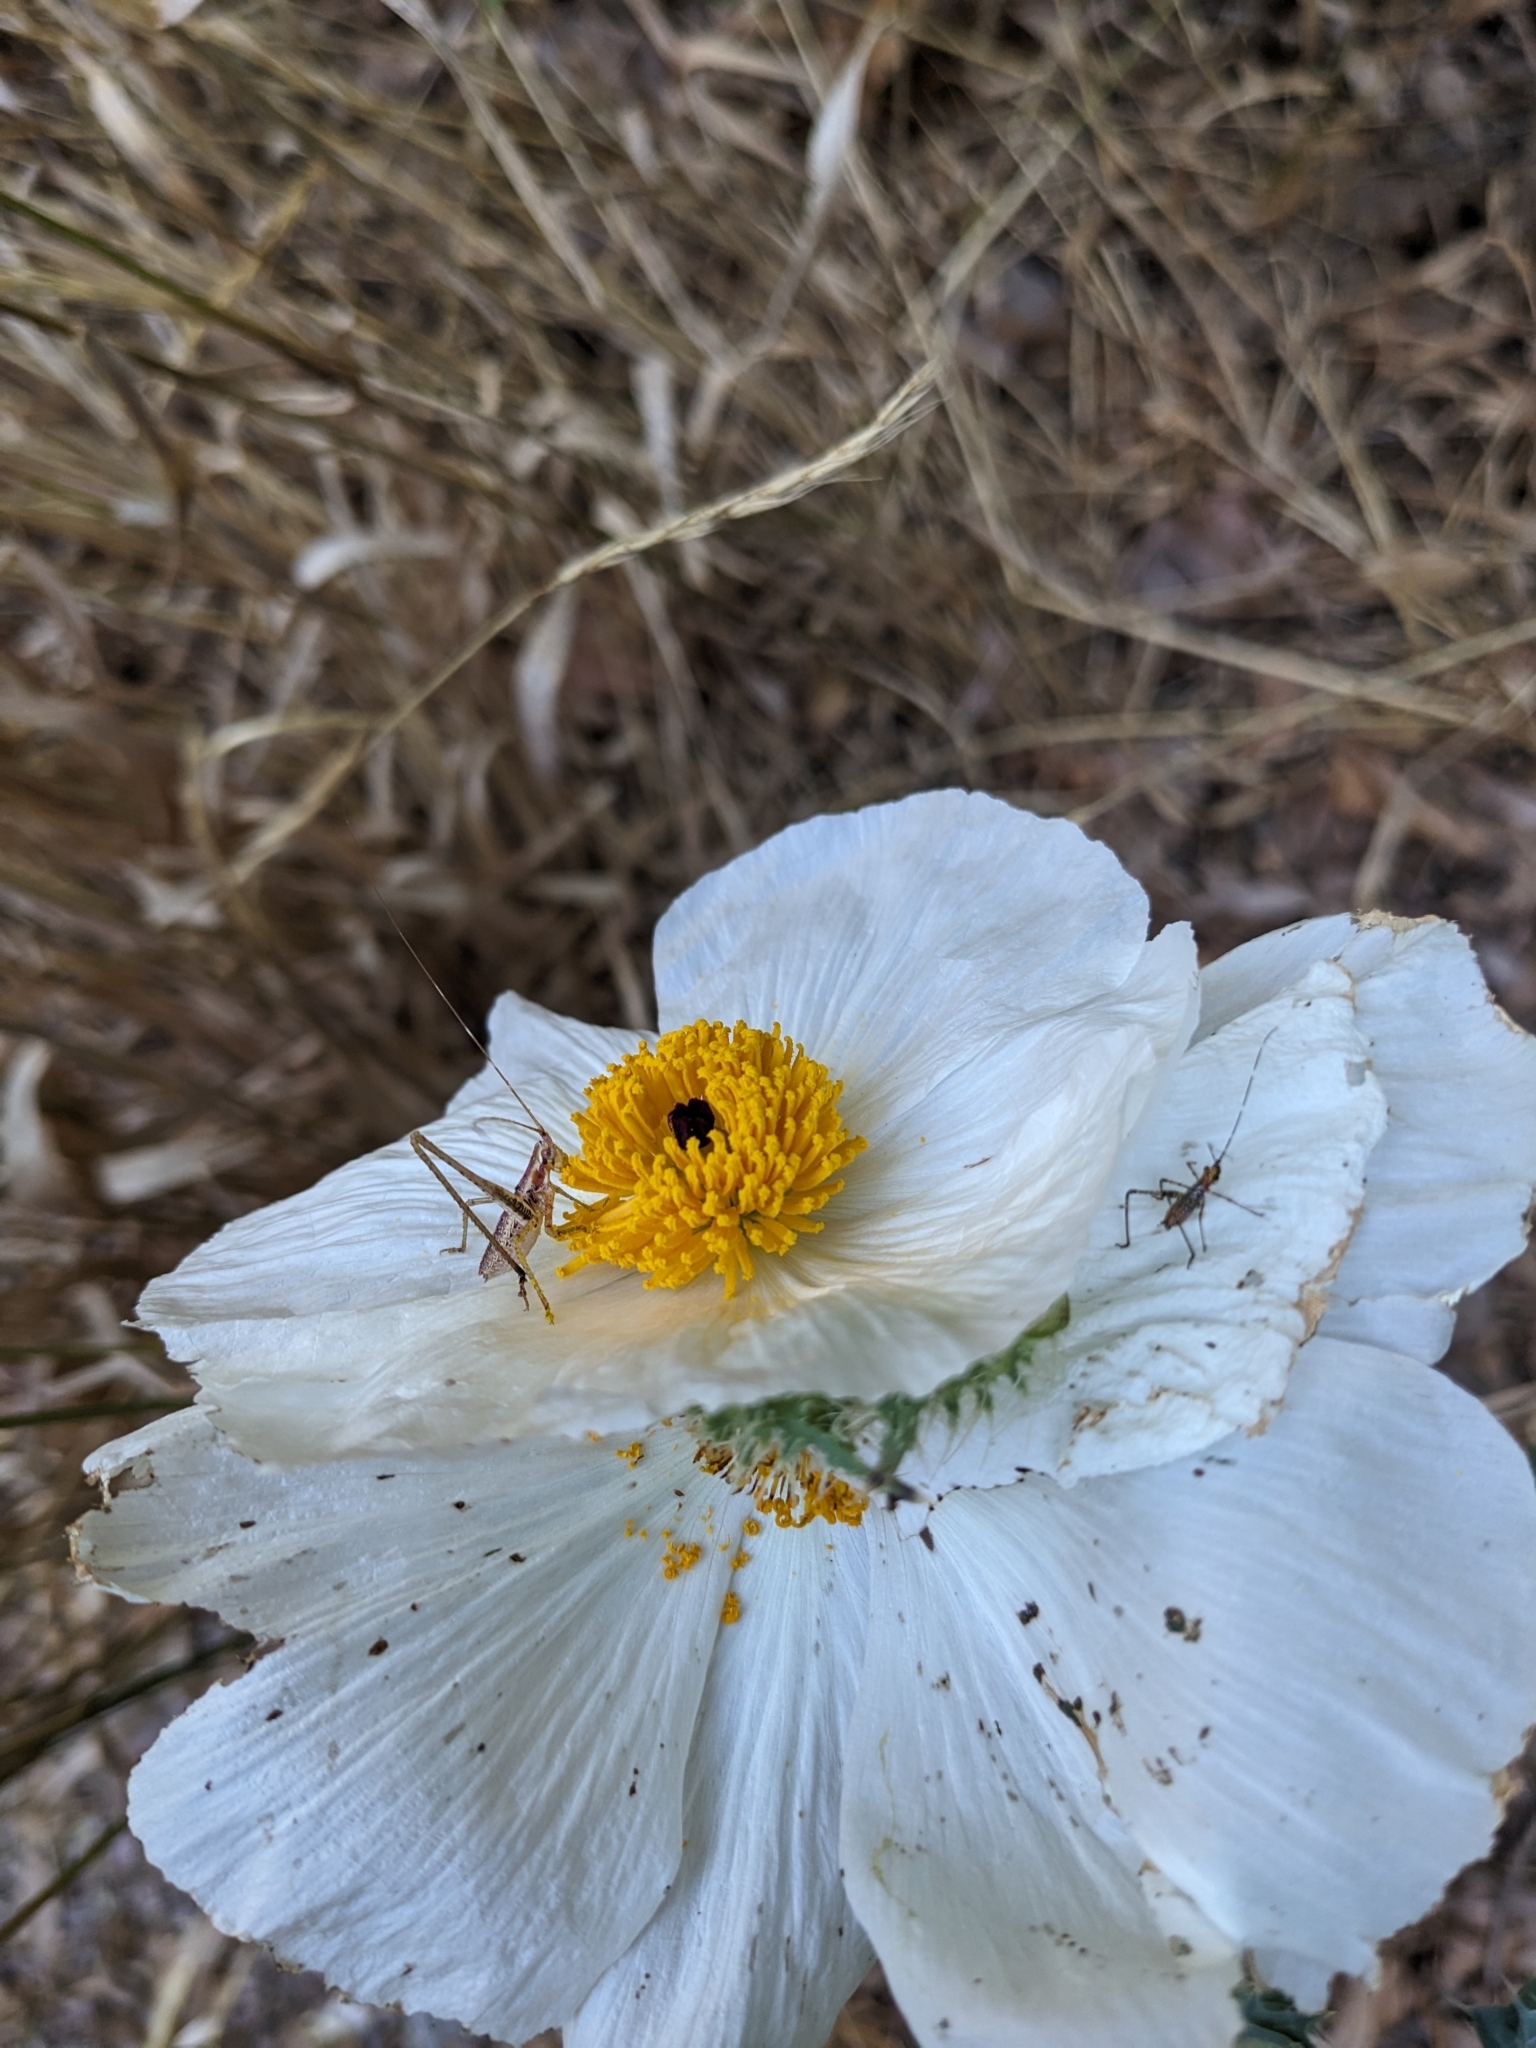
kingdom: Plantae
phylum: Tracheophyta
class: Magnoliopsida
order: Ranunculales
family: Papaveraceae
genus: Argemone
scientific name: Argemone pleiacantha
